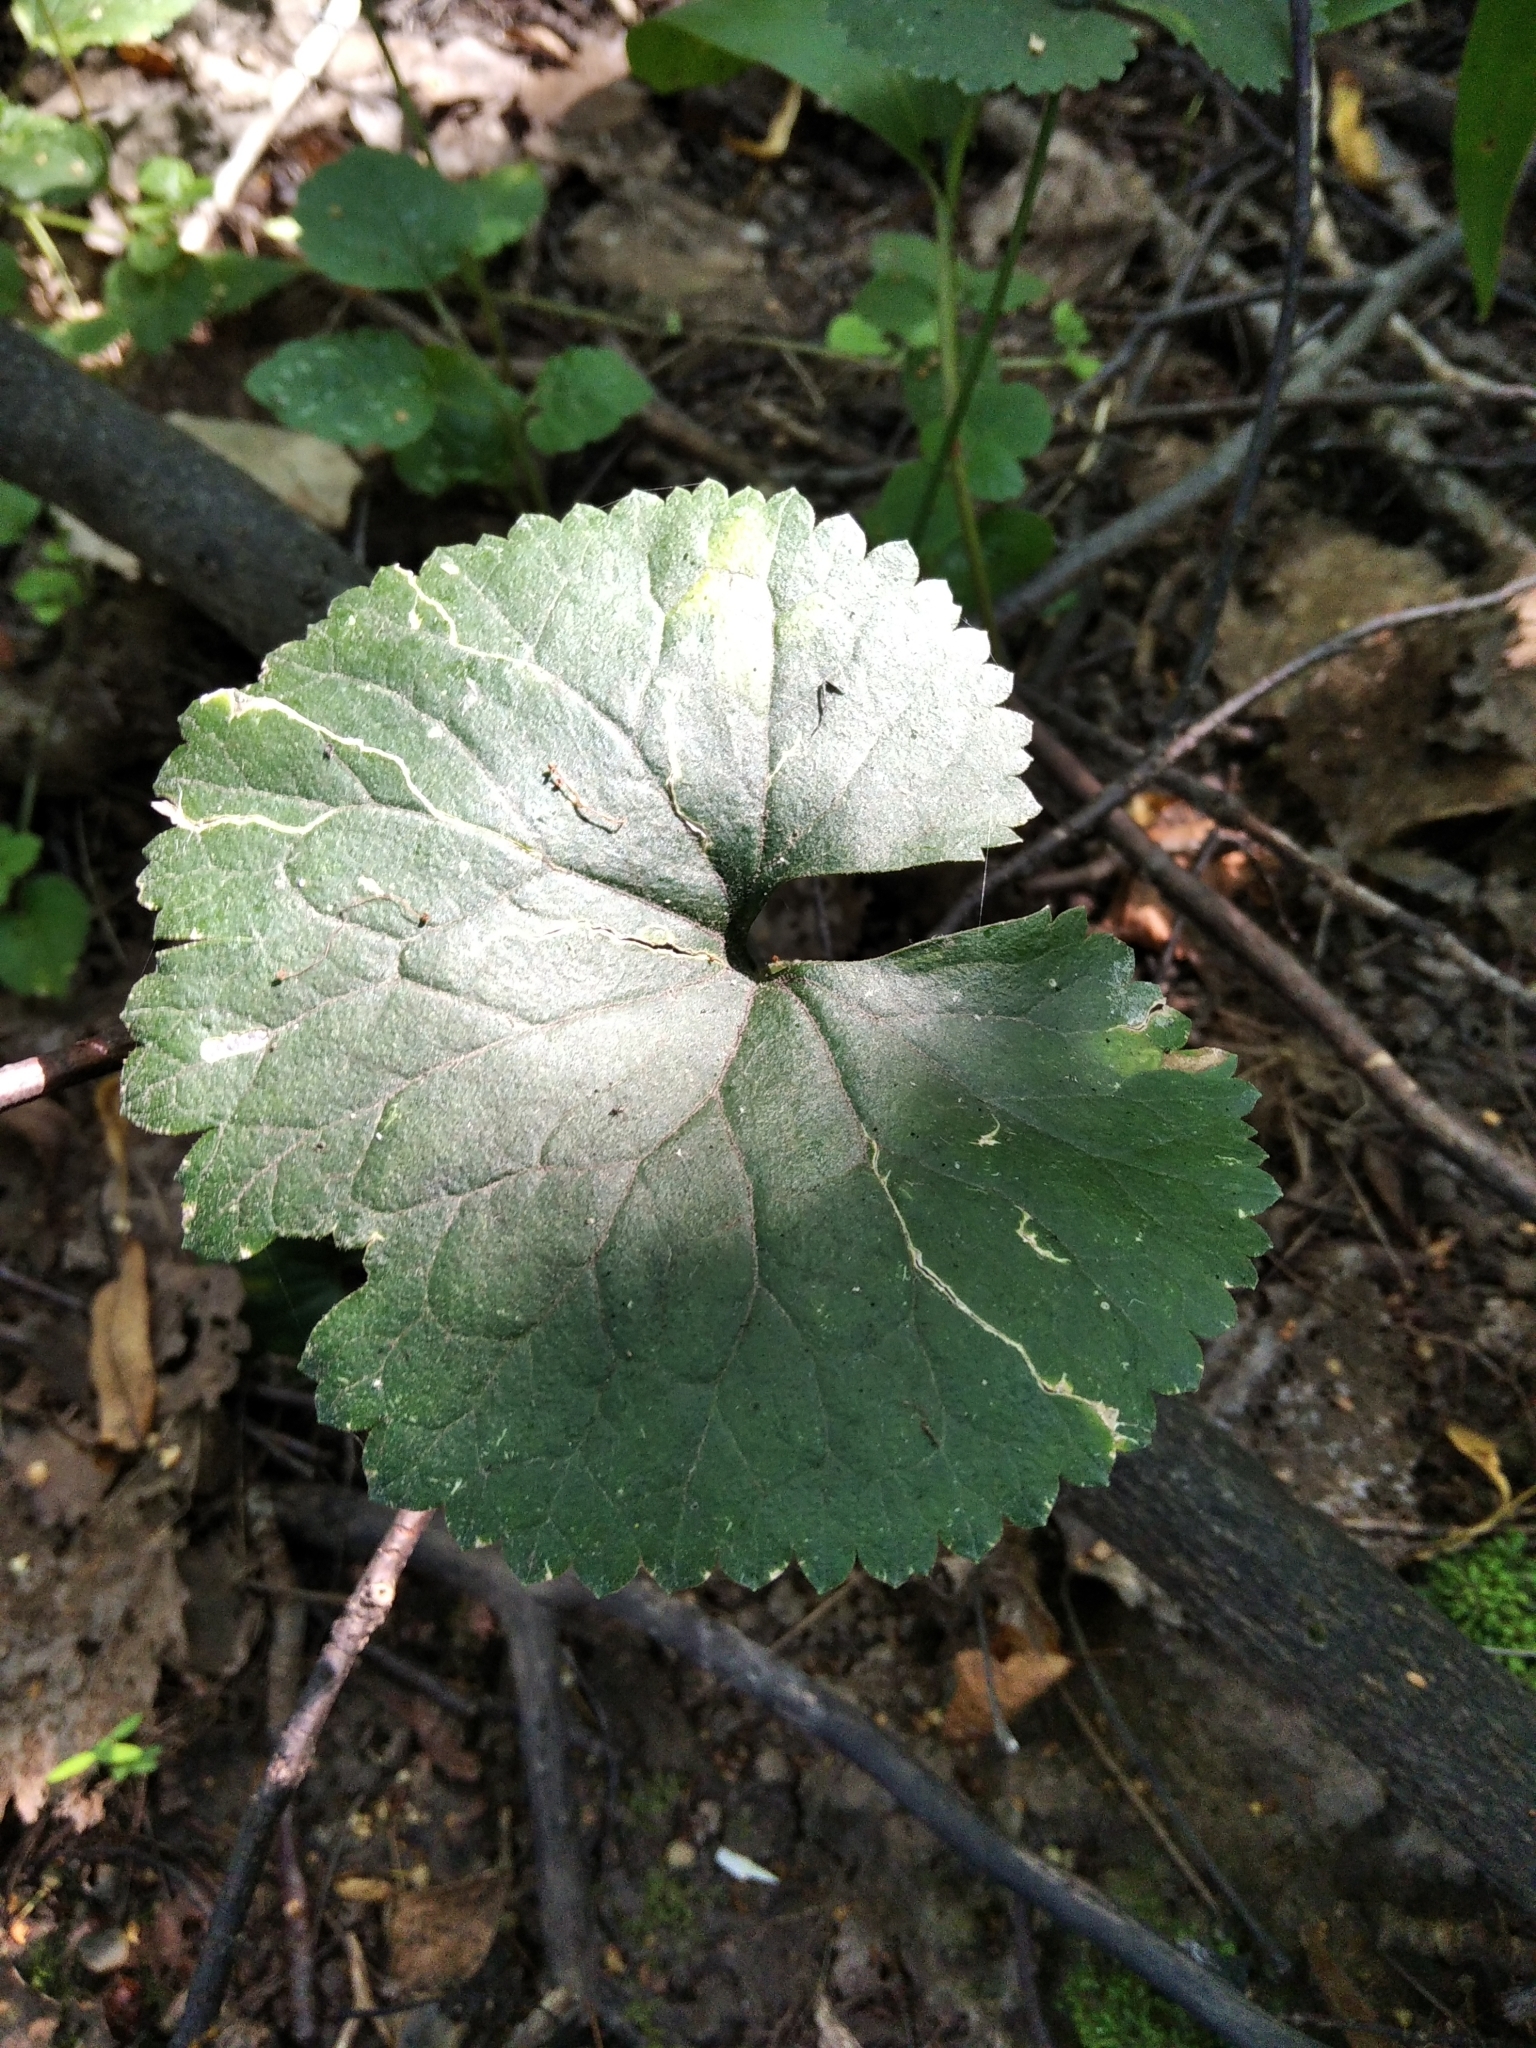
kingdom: Plantae
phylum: Tracheophyta
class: Magnoliopsida
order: Ranunculales
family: Ranunculaceae
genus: Ranunculus
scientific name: Ranunculus cassubicus
